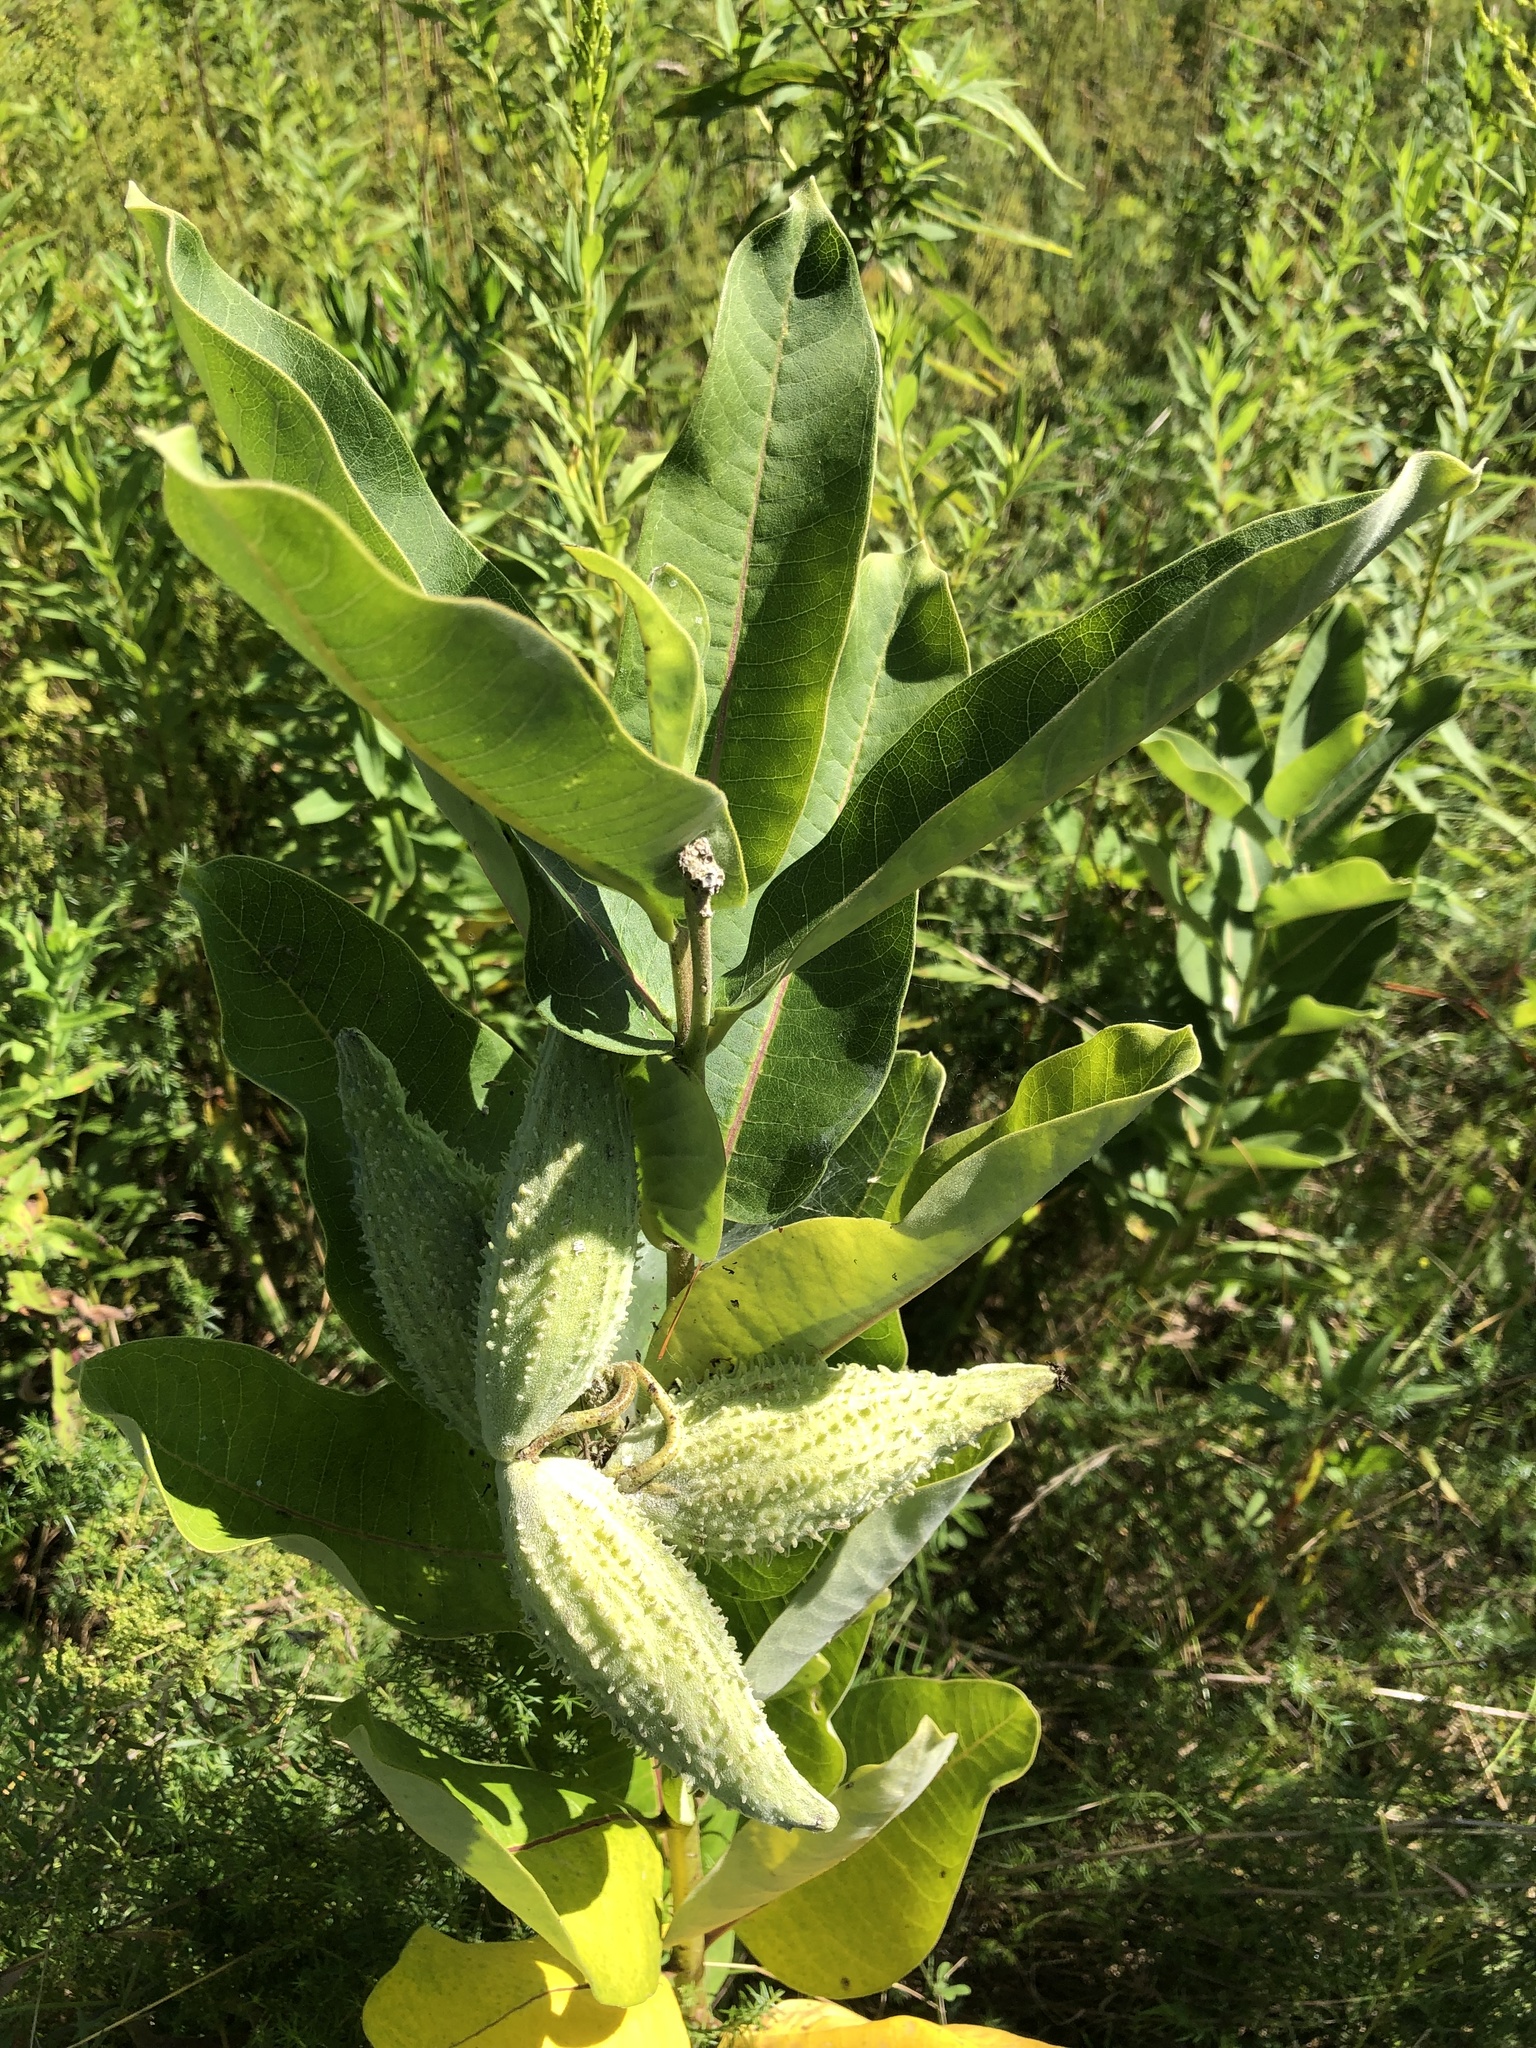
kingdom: Plantae
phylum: Tracheophyta
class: Magnoliopsida
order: Gentianales
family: Apocynaceae
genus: Asclepias
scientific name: Asclepias syriaca
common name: Common milkweed
